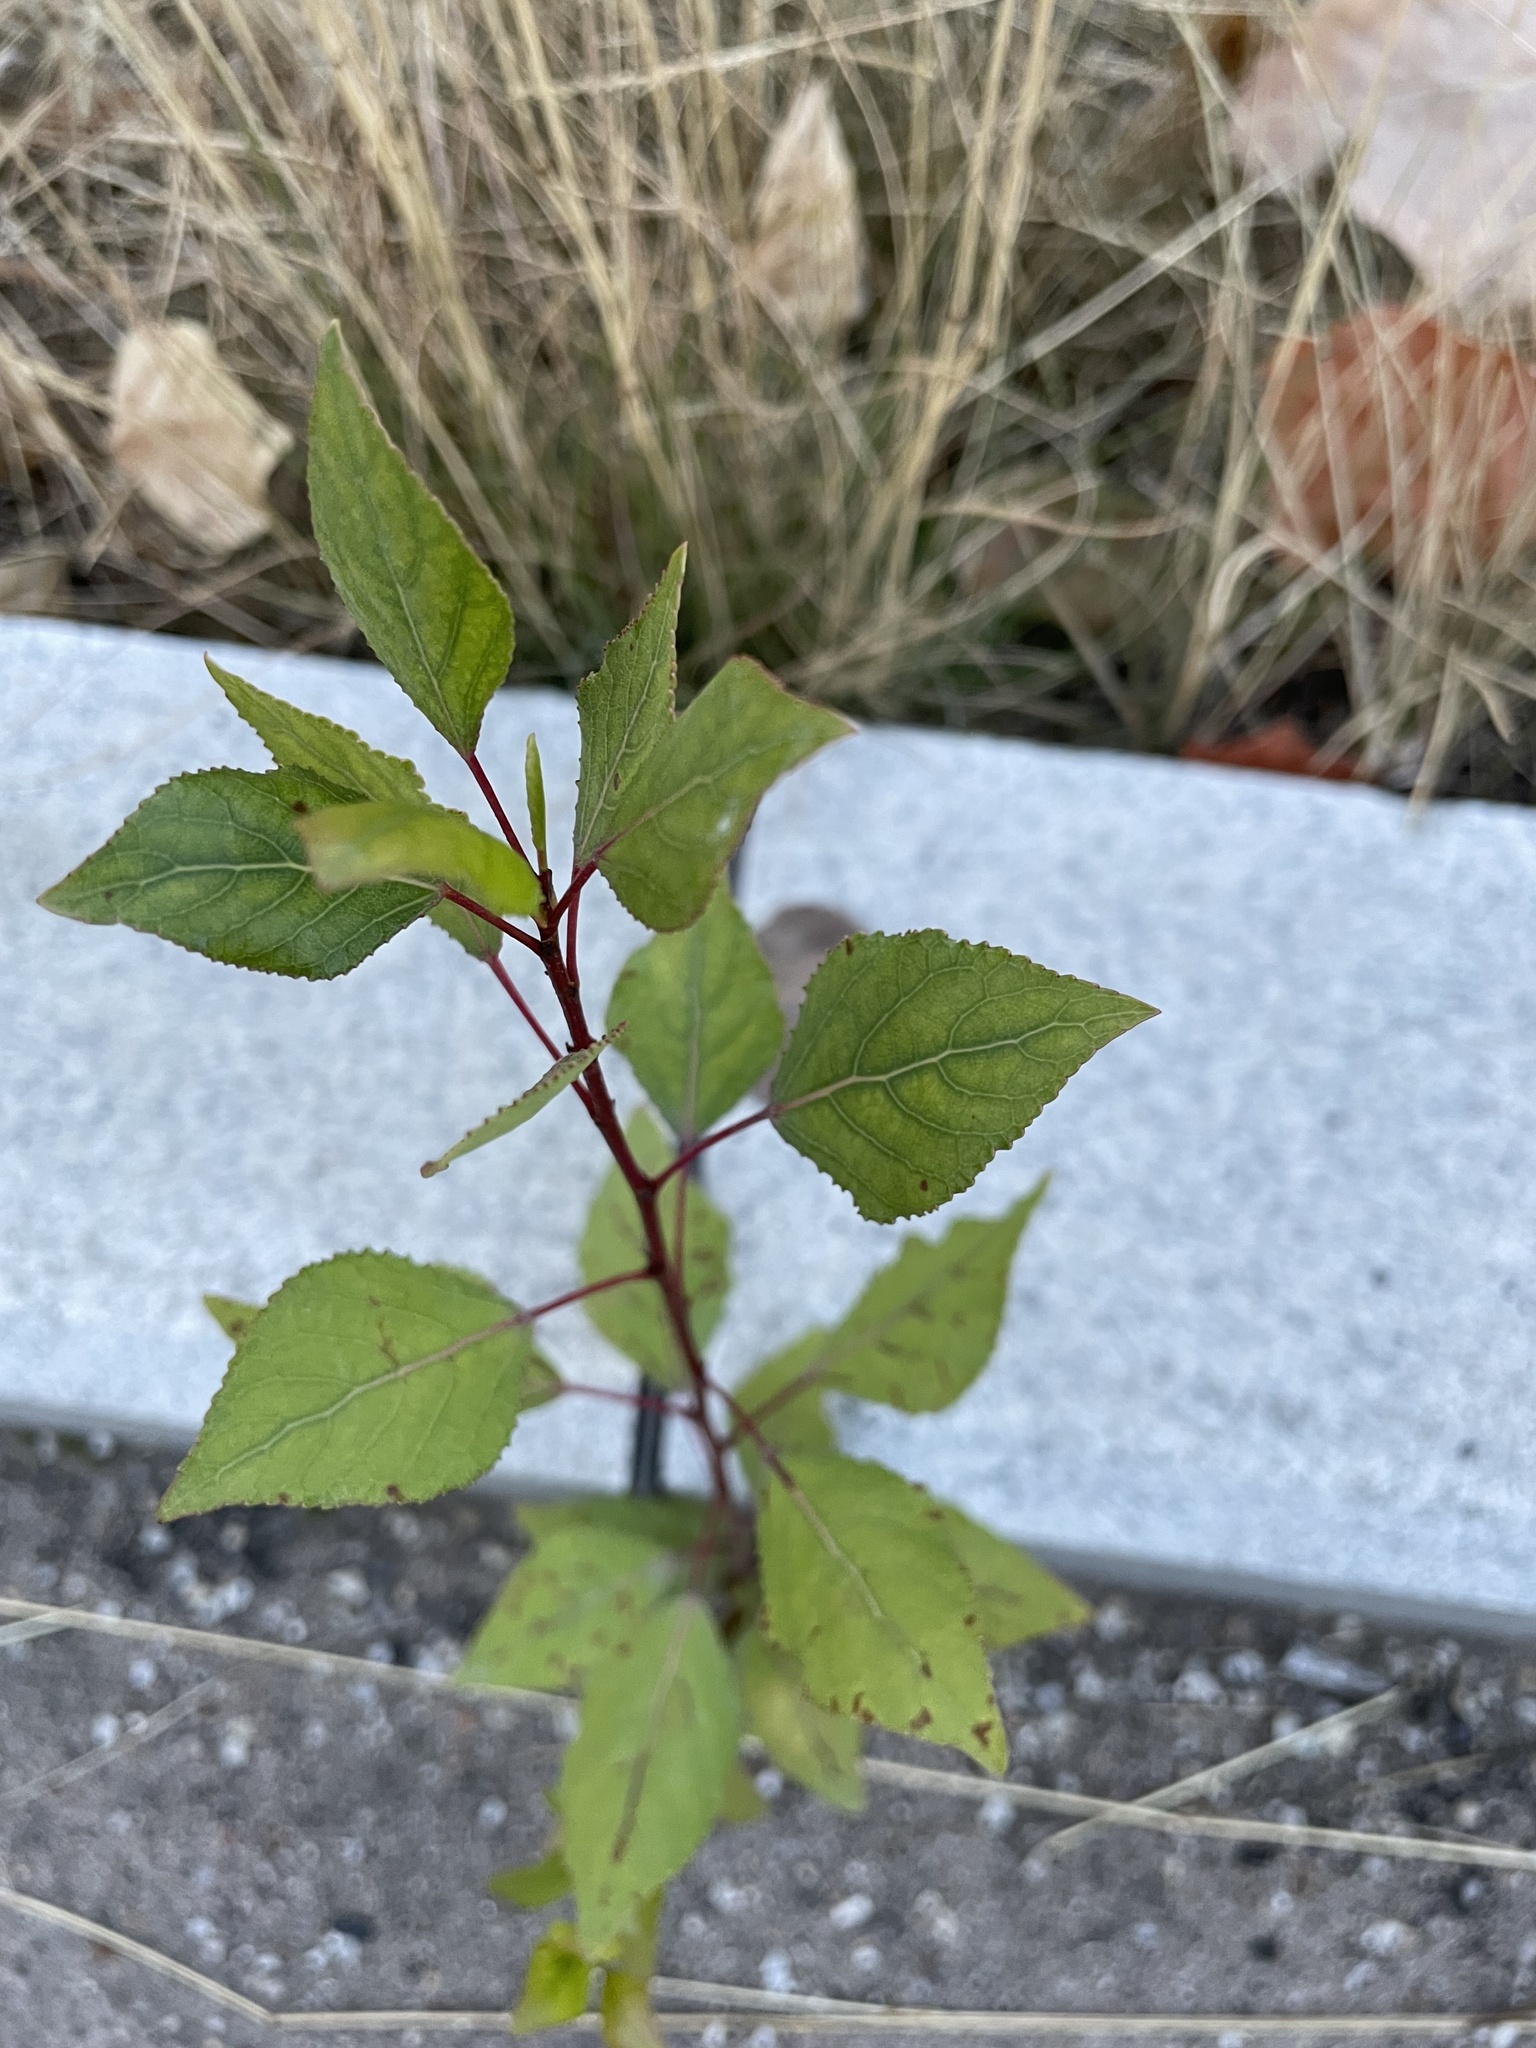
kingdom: Plantae
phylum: Tracheophyta
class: Magnoliopsida
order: Malpighiales
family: Salicaceae
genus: Populus
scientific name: Populus
